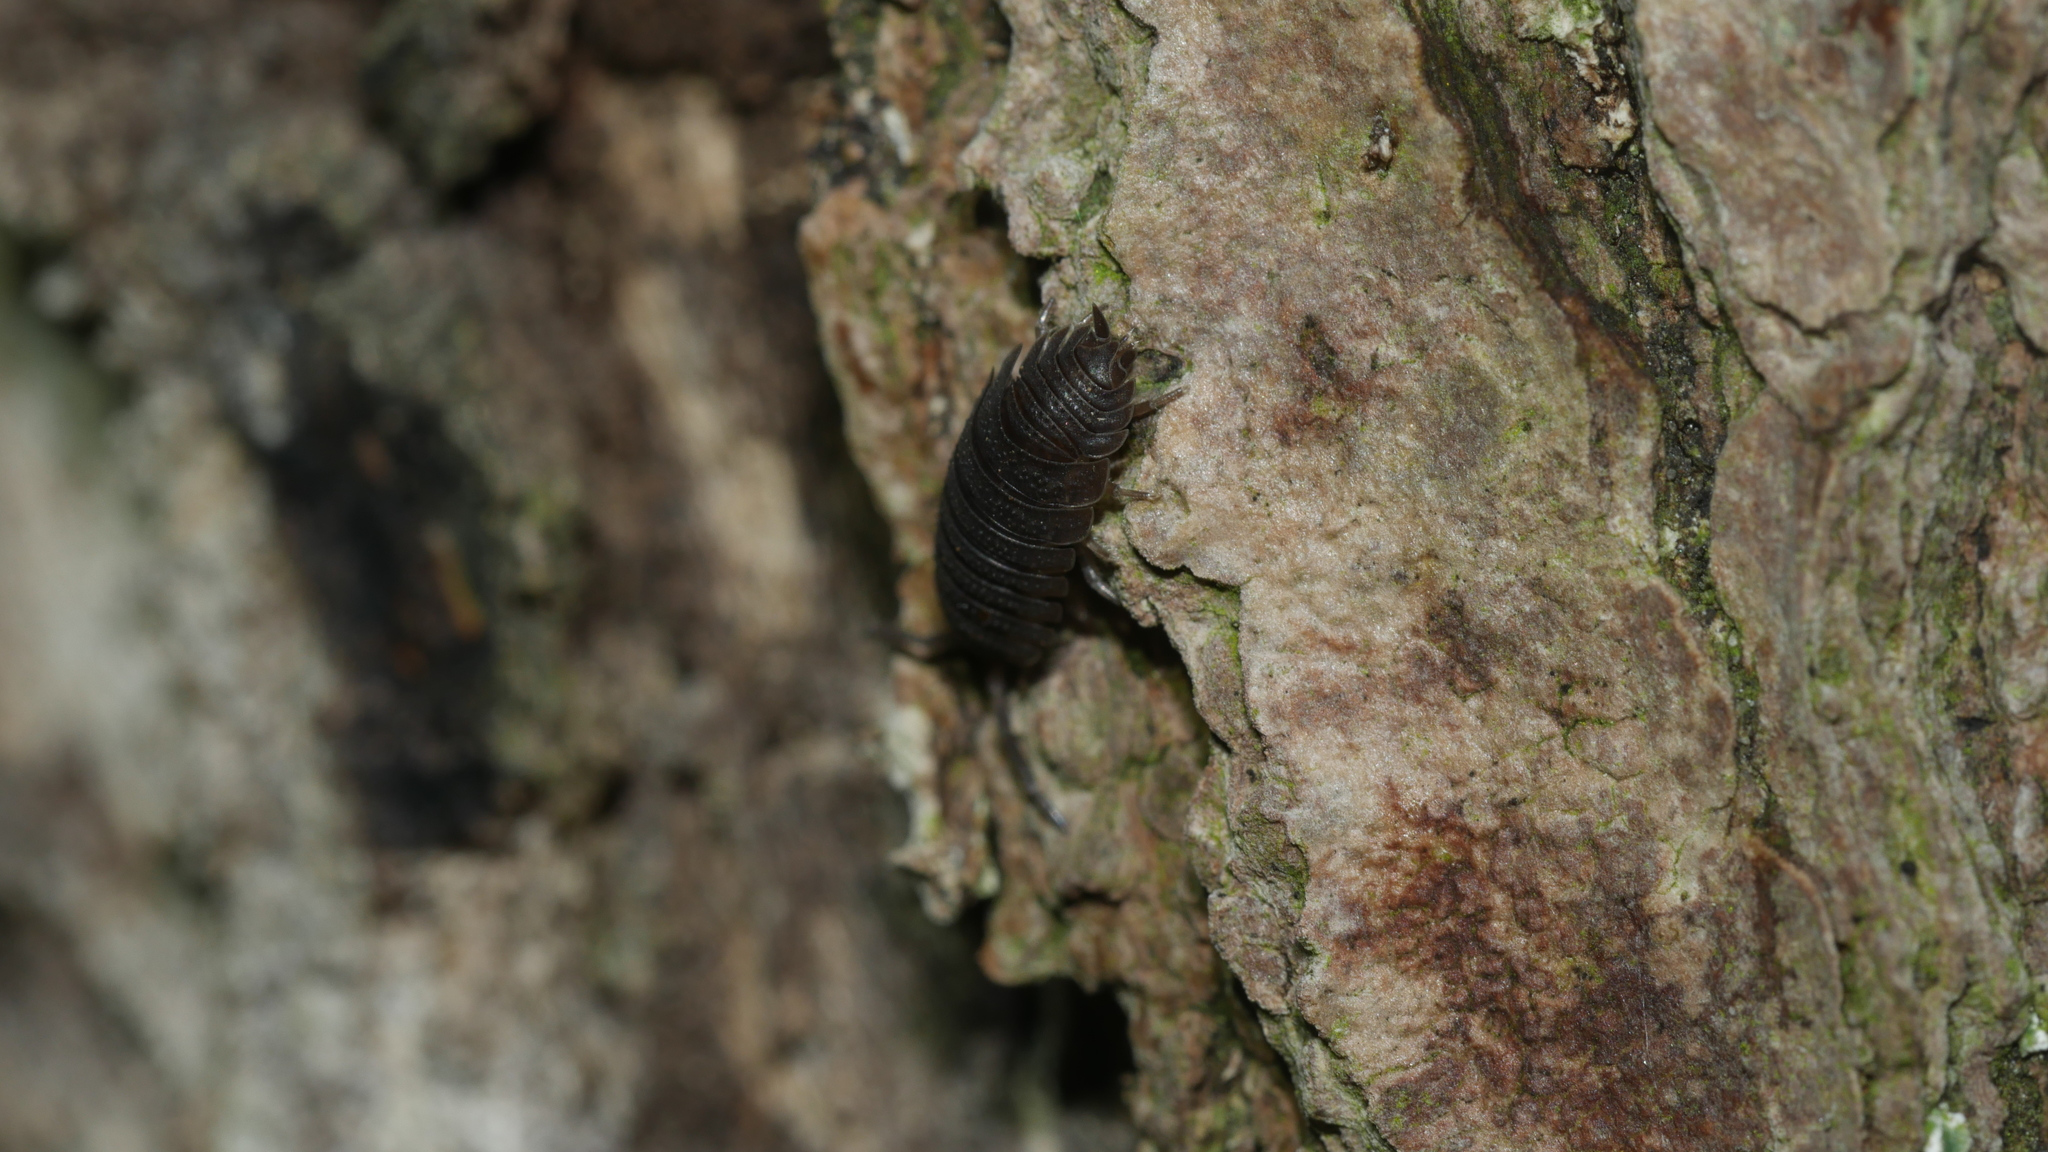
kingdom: Animalia
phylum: Arthropoda
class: Malacostraca
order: Isopoda
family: Porcellionidae
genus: Porcellio
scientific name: Porcellio scaber
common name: Common rough woodlouse
